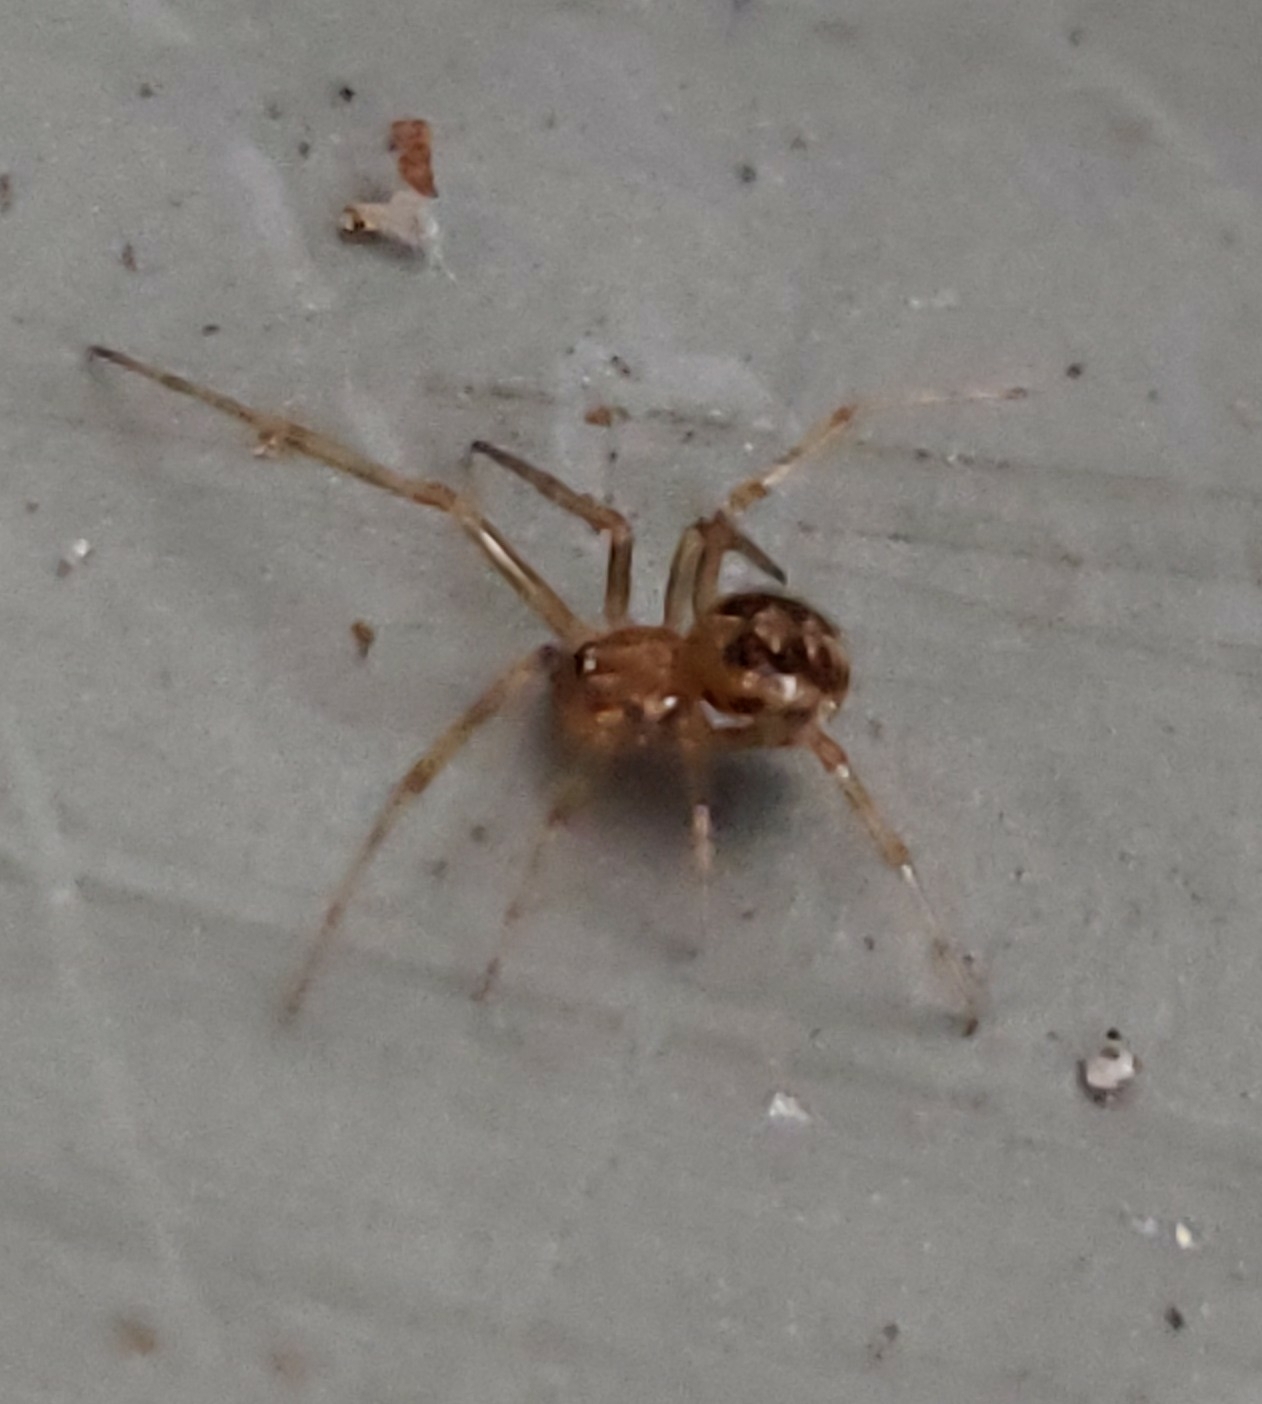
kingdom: Animalia
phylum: Arthropoda
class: Arachnida
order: Araneae
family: Theridiidae
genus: Steatoda
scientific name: Steatoda triangulosa
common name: Triangulate bud spider
